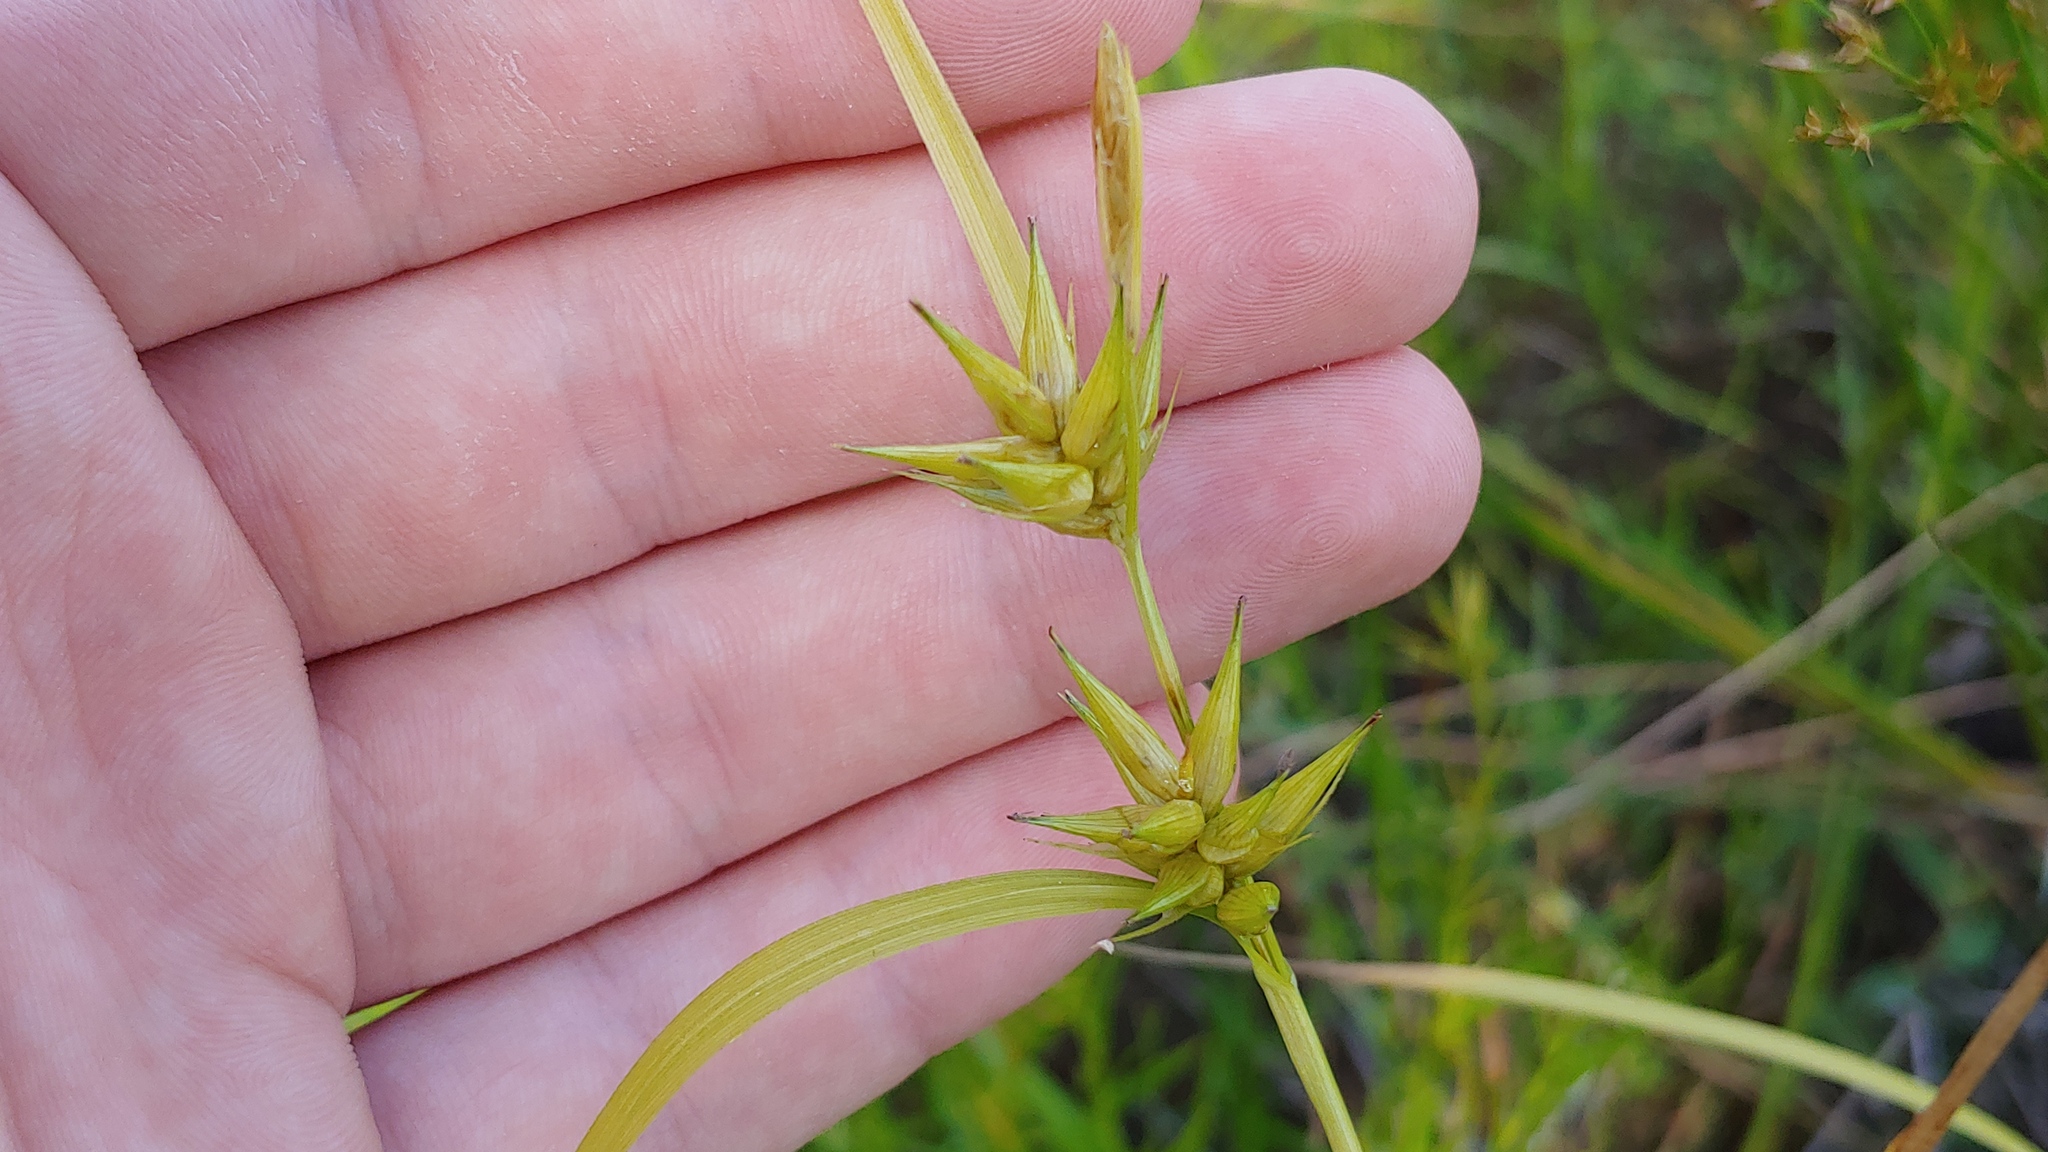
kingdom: Plantae
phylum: Tracheophyta
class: Liliopsida
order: Poales
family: Cyperaceae
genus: Carex
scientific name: Carex folliculata
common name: Northern long sedge
